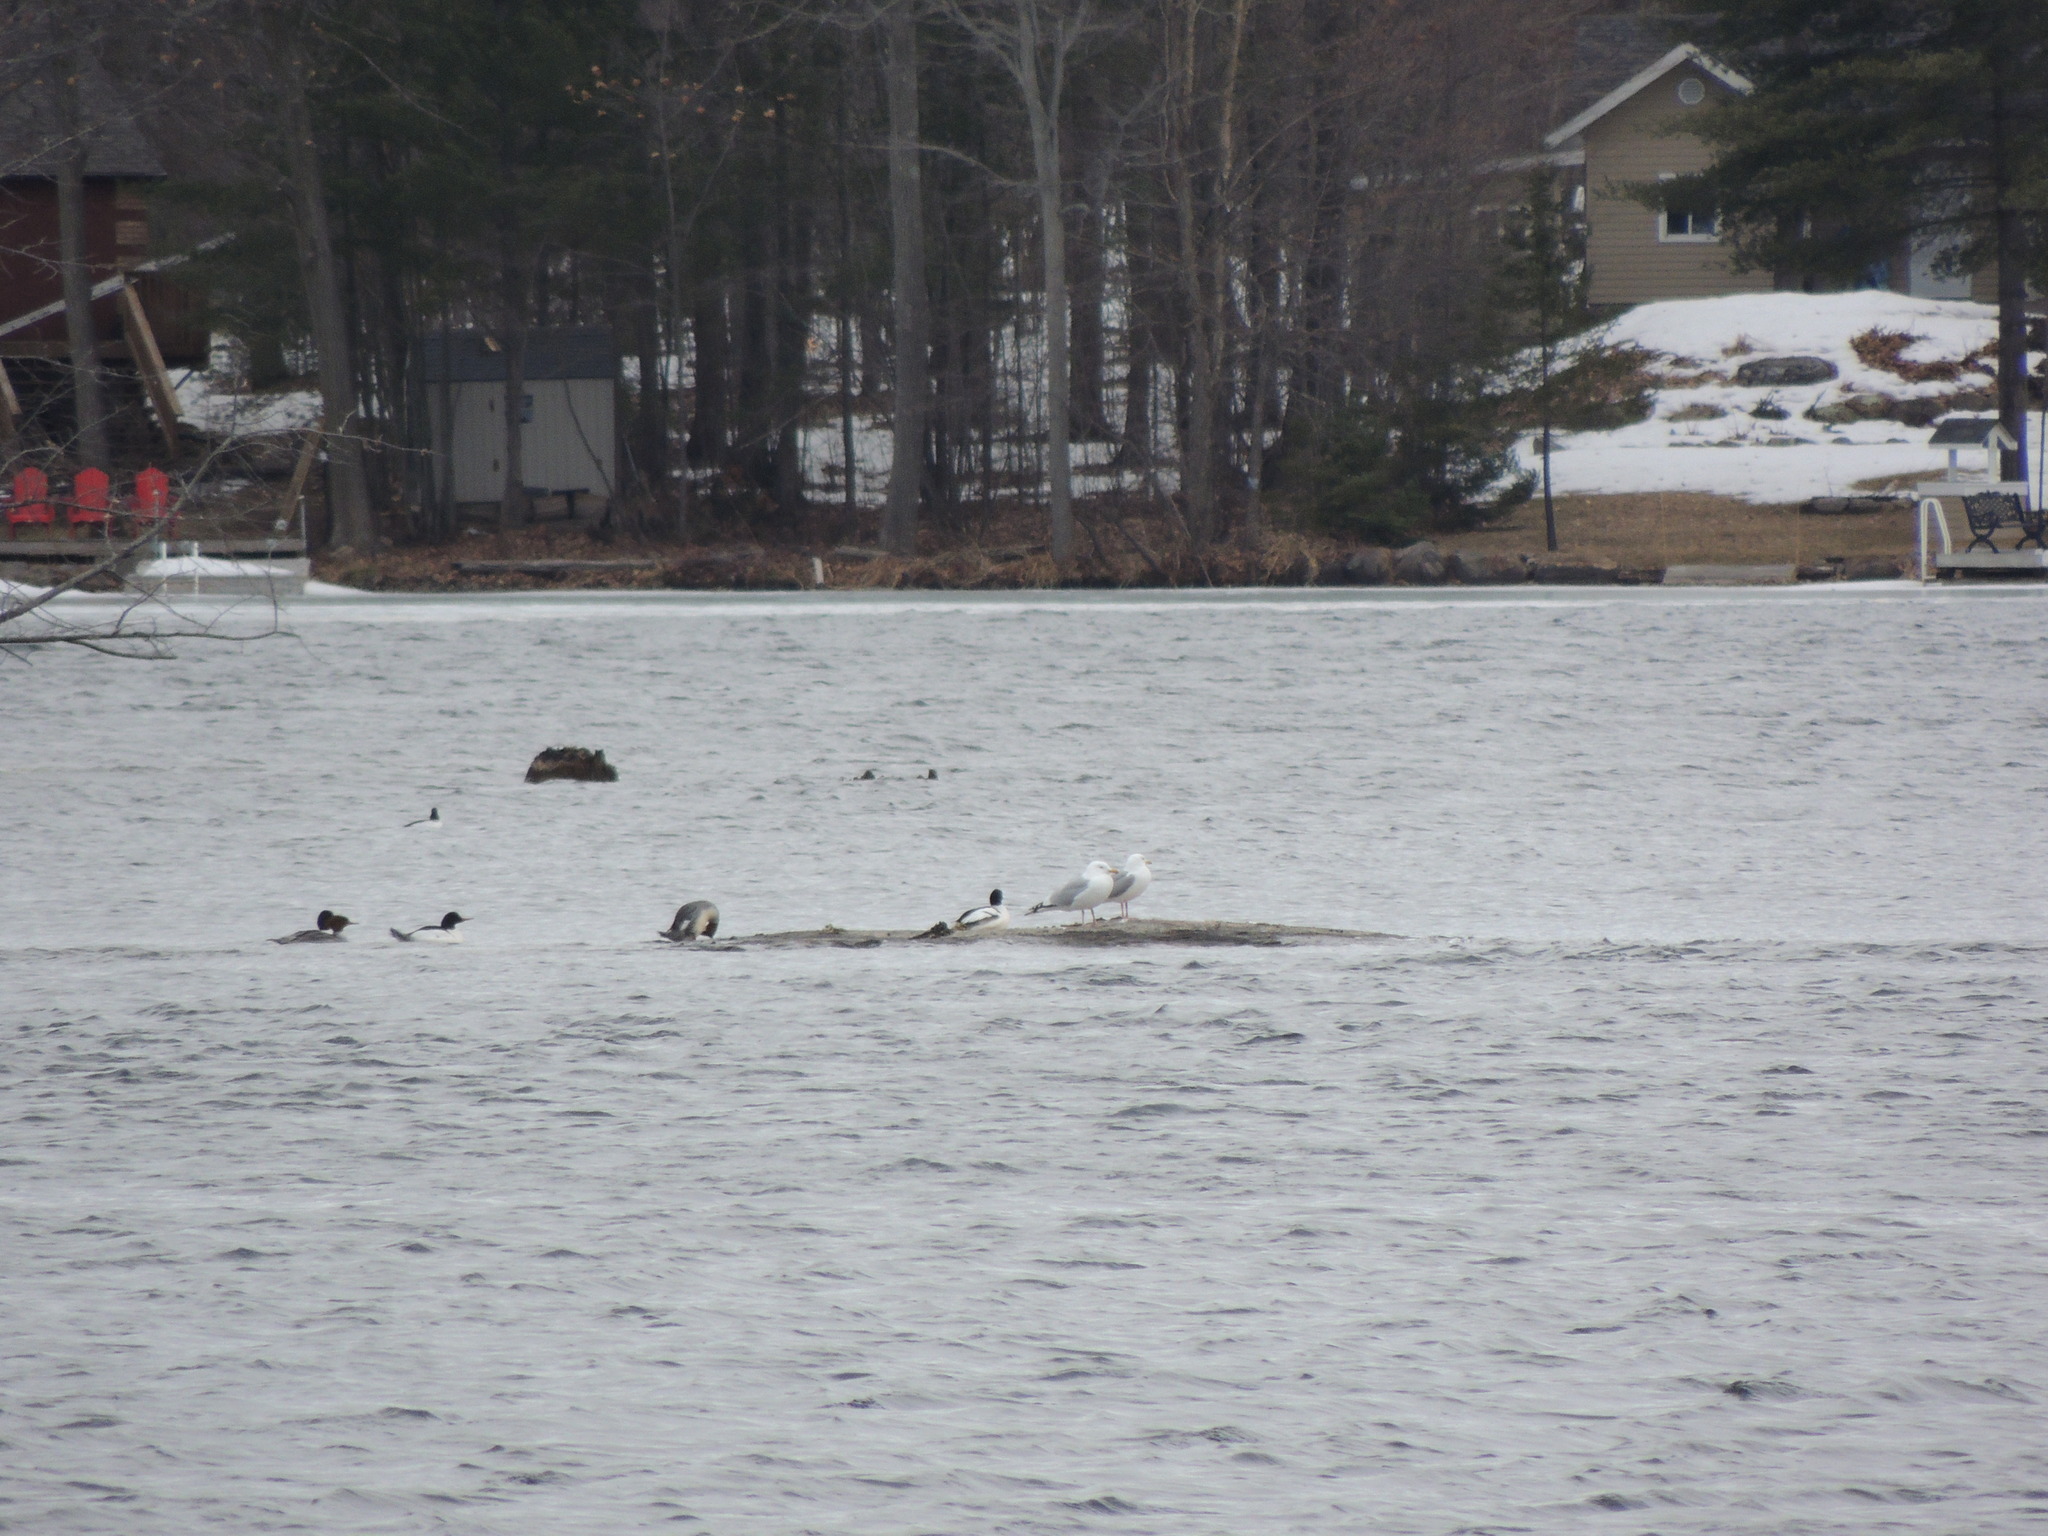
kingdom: Animalia
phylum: Chordata
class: Aves
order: Anseriformes
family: Anatidae
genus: Mergus
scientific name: Mergus merganser
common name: Common merganser
